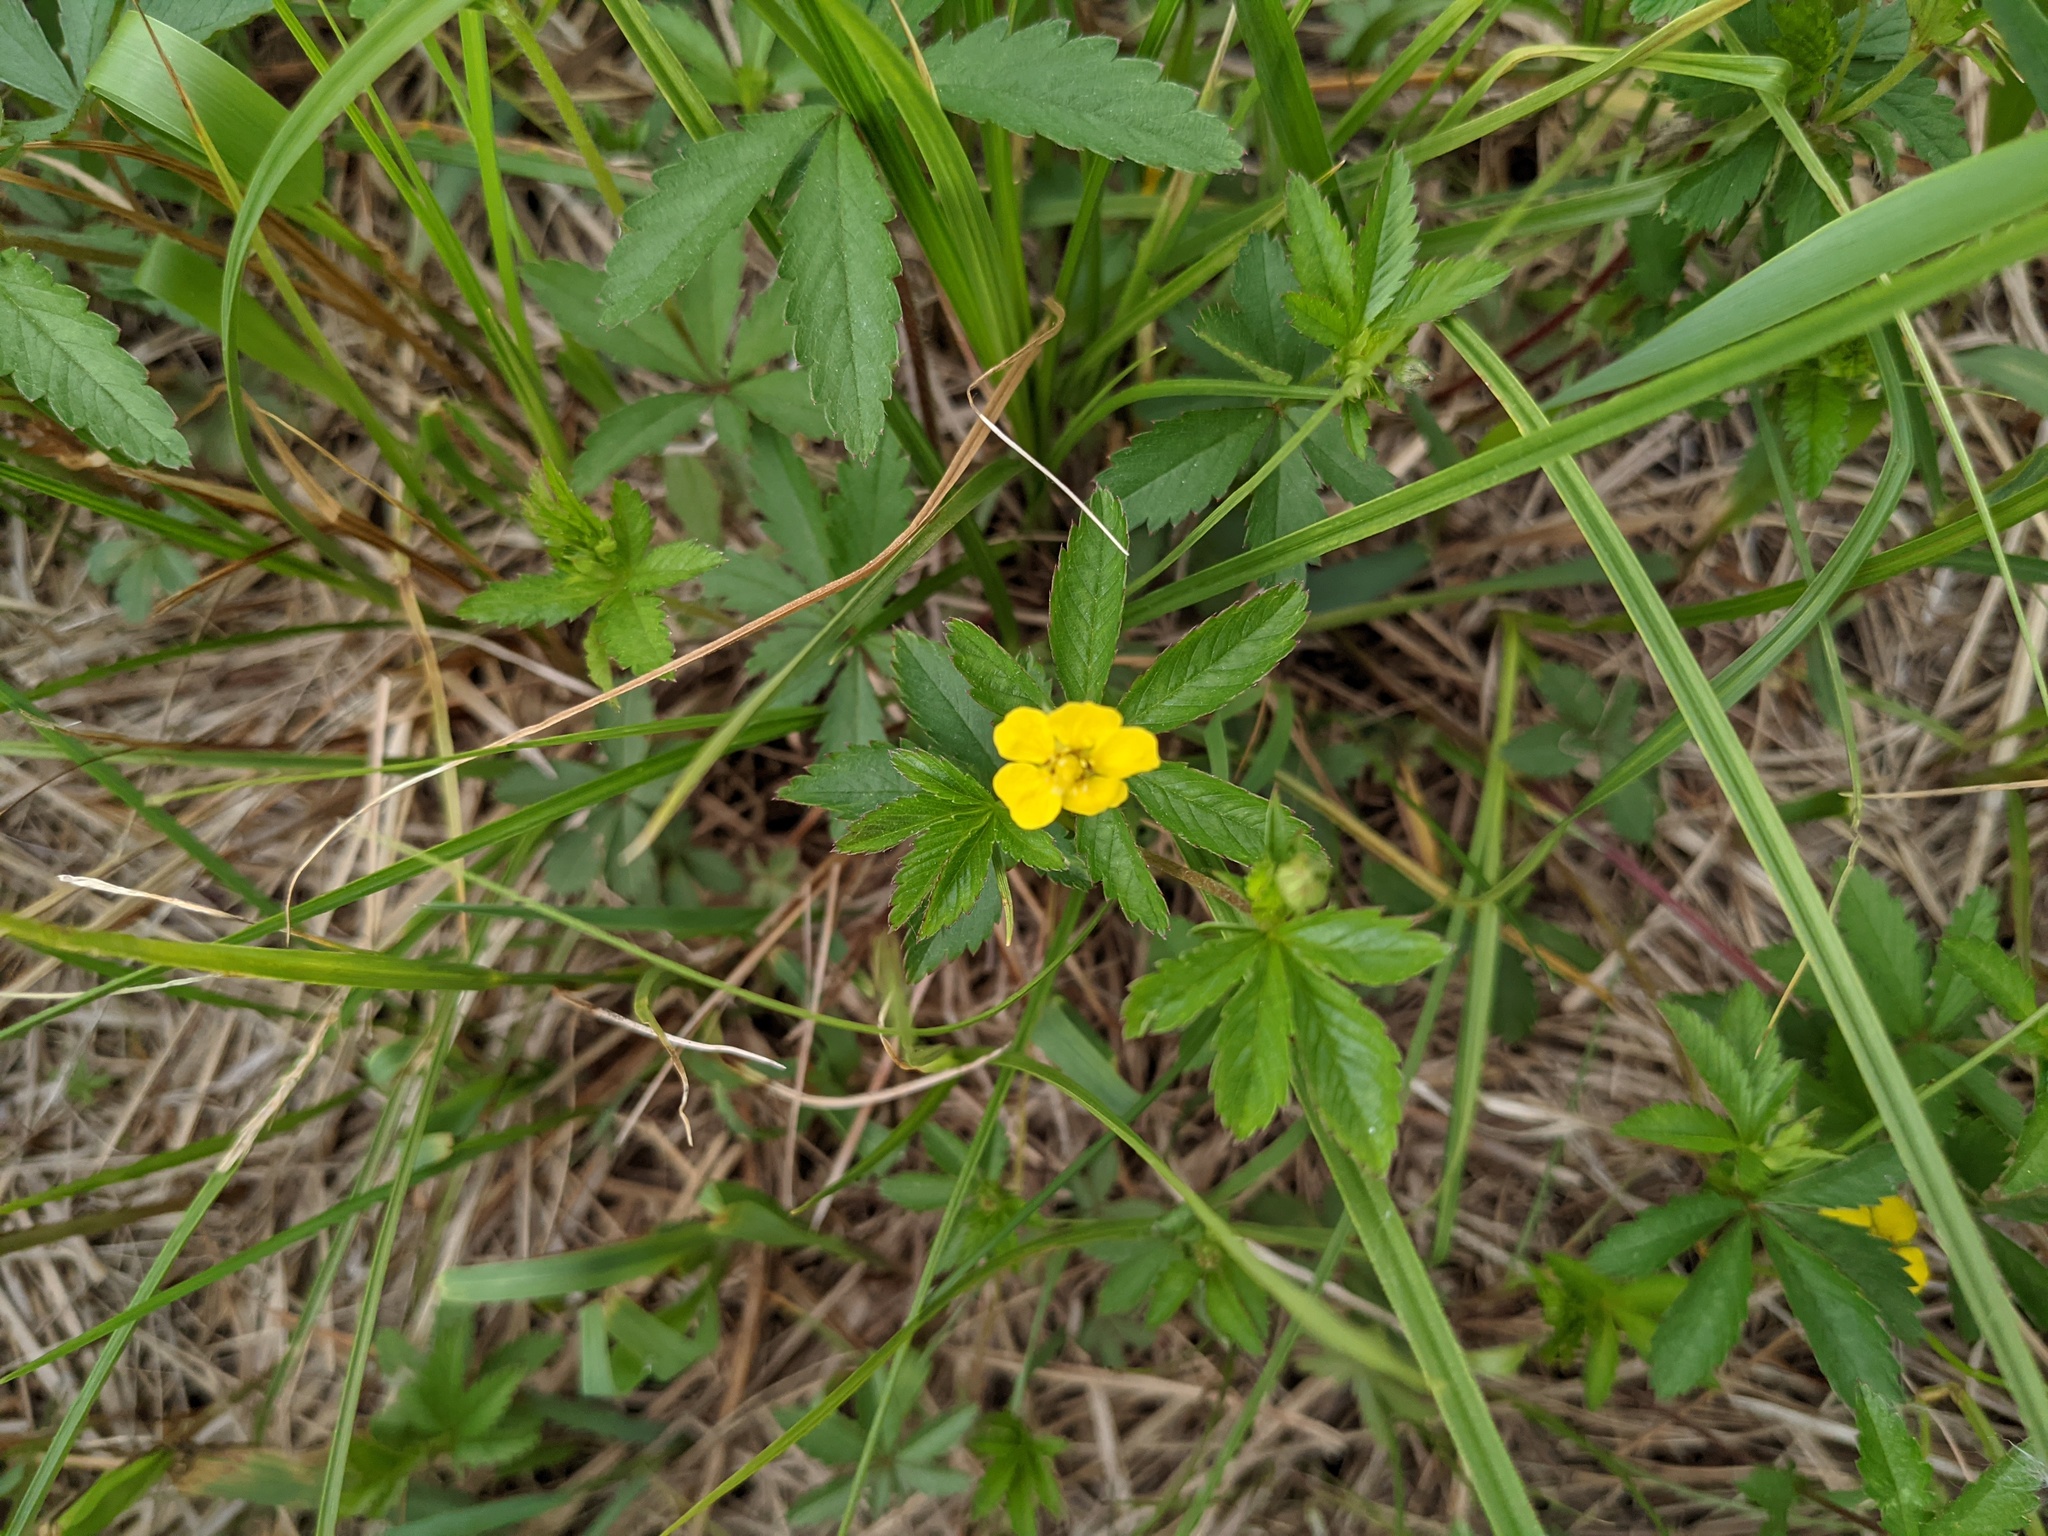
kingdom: Plantae
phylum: Tracheophyta
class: Magnoliopsida
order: Rosales
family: Rosaceae
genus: Potentilla
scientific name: Potentilla simplex
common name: Old field cinquefoil
